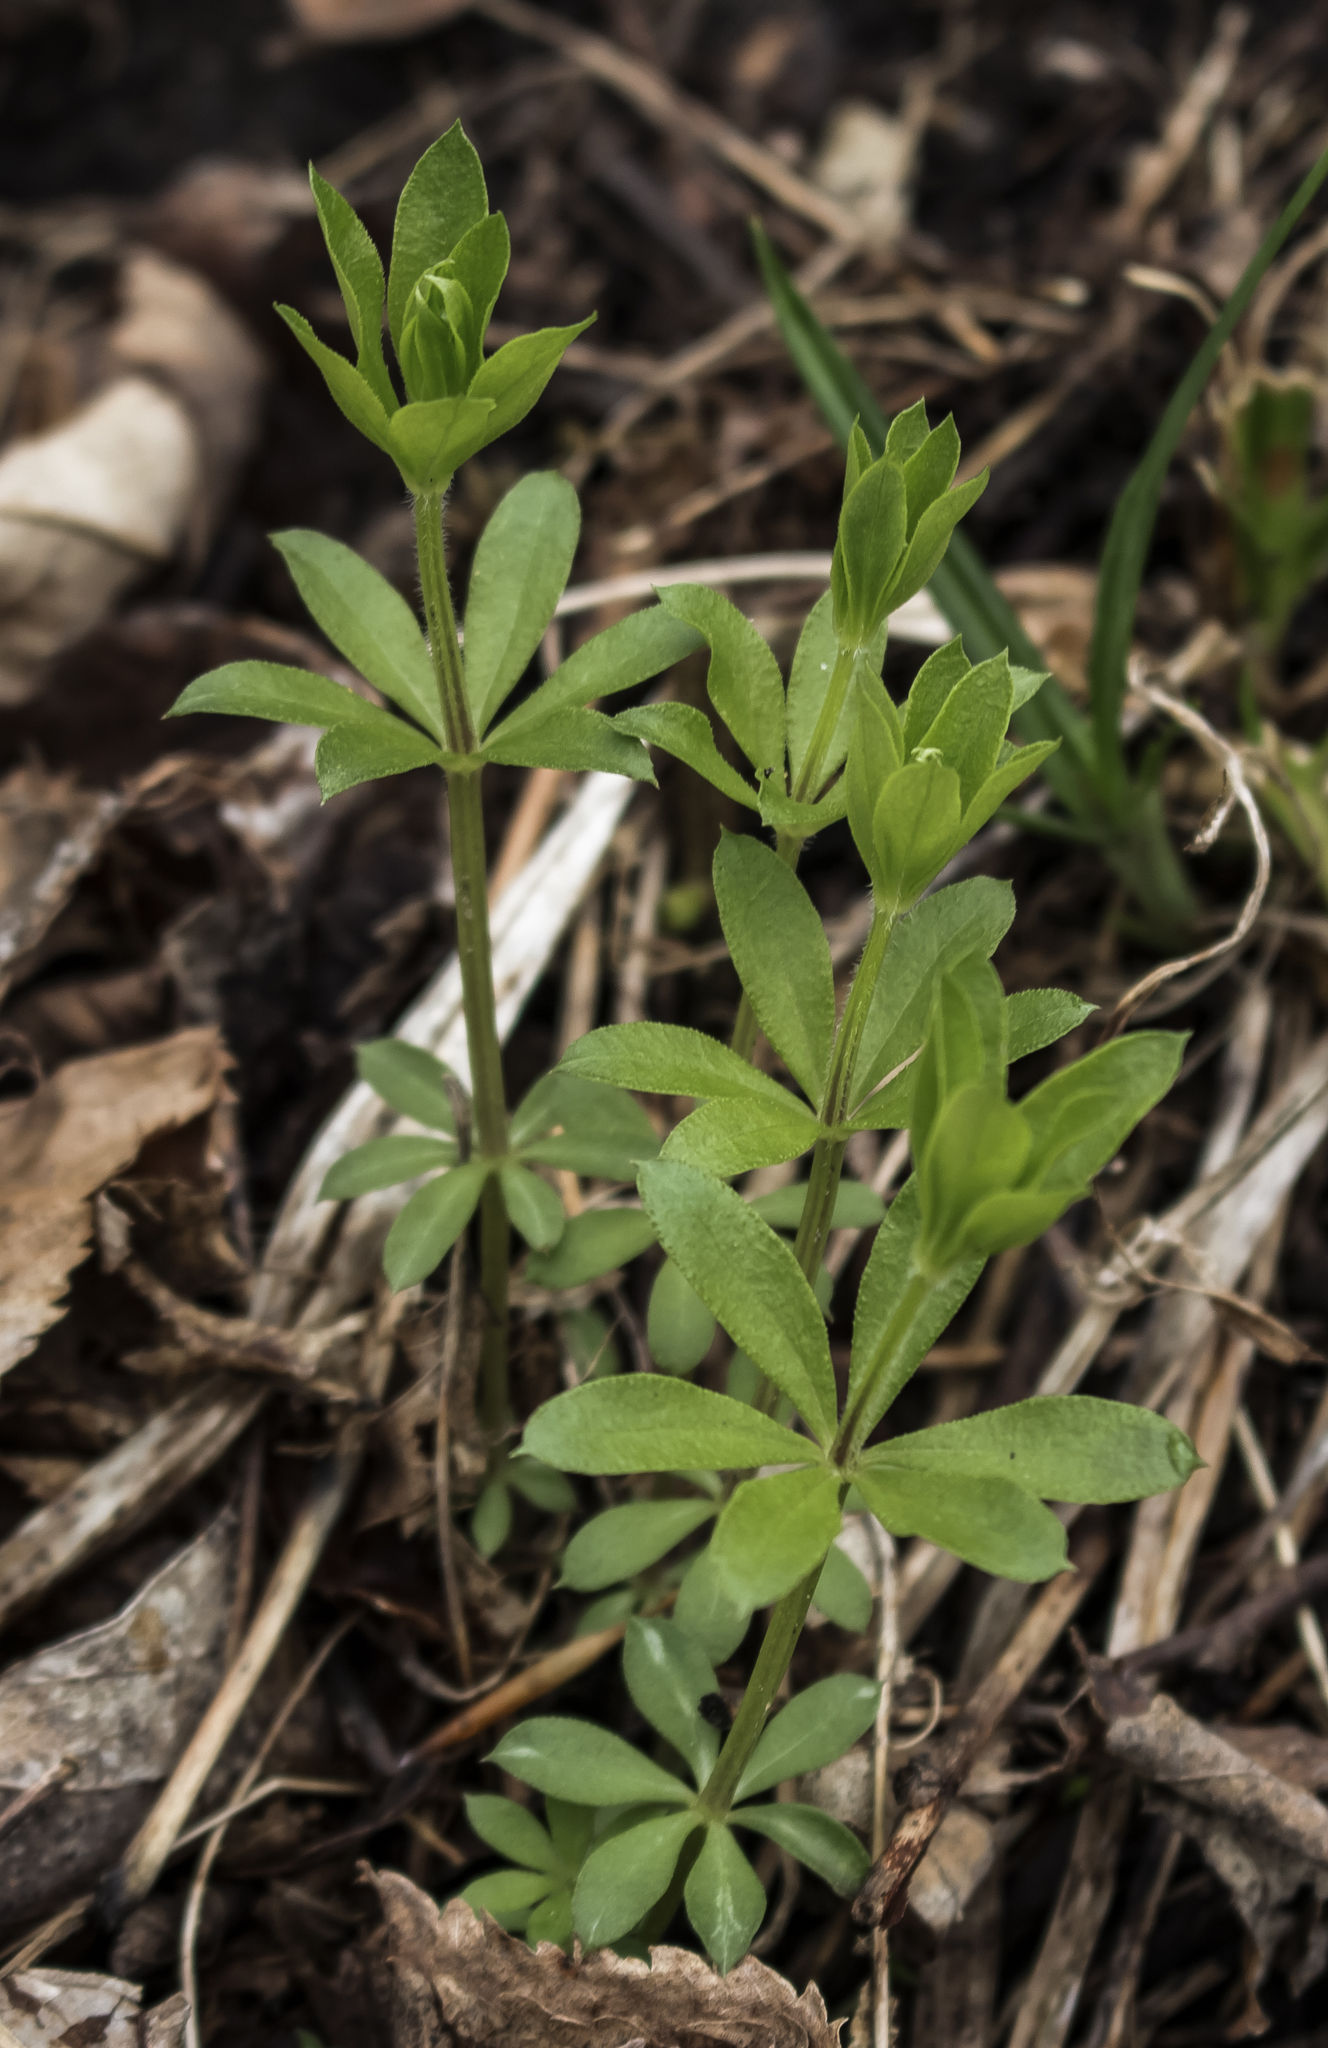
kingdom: Plantae
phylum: Tracheophyta
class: Magnoliopsida
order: Gentianales
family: Rubiaceae
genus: Galium
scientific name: Galium triflorum
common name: Fragrant bedstraw
